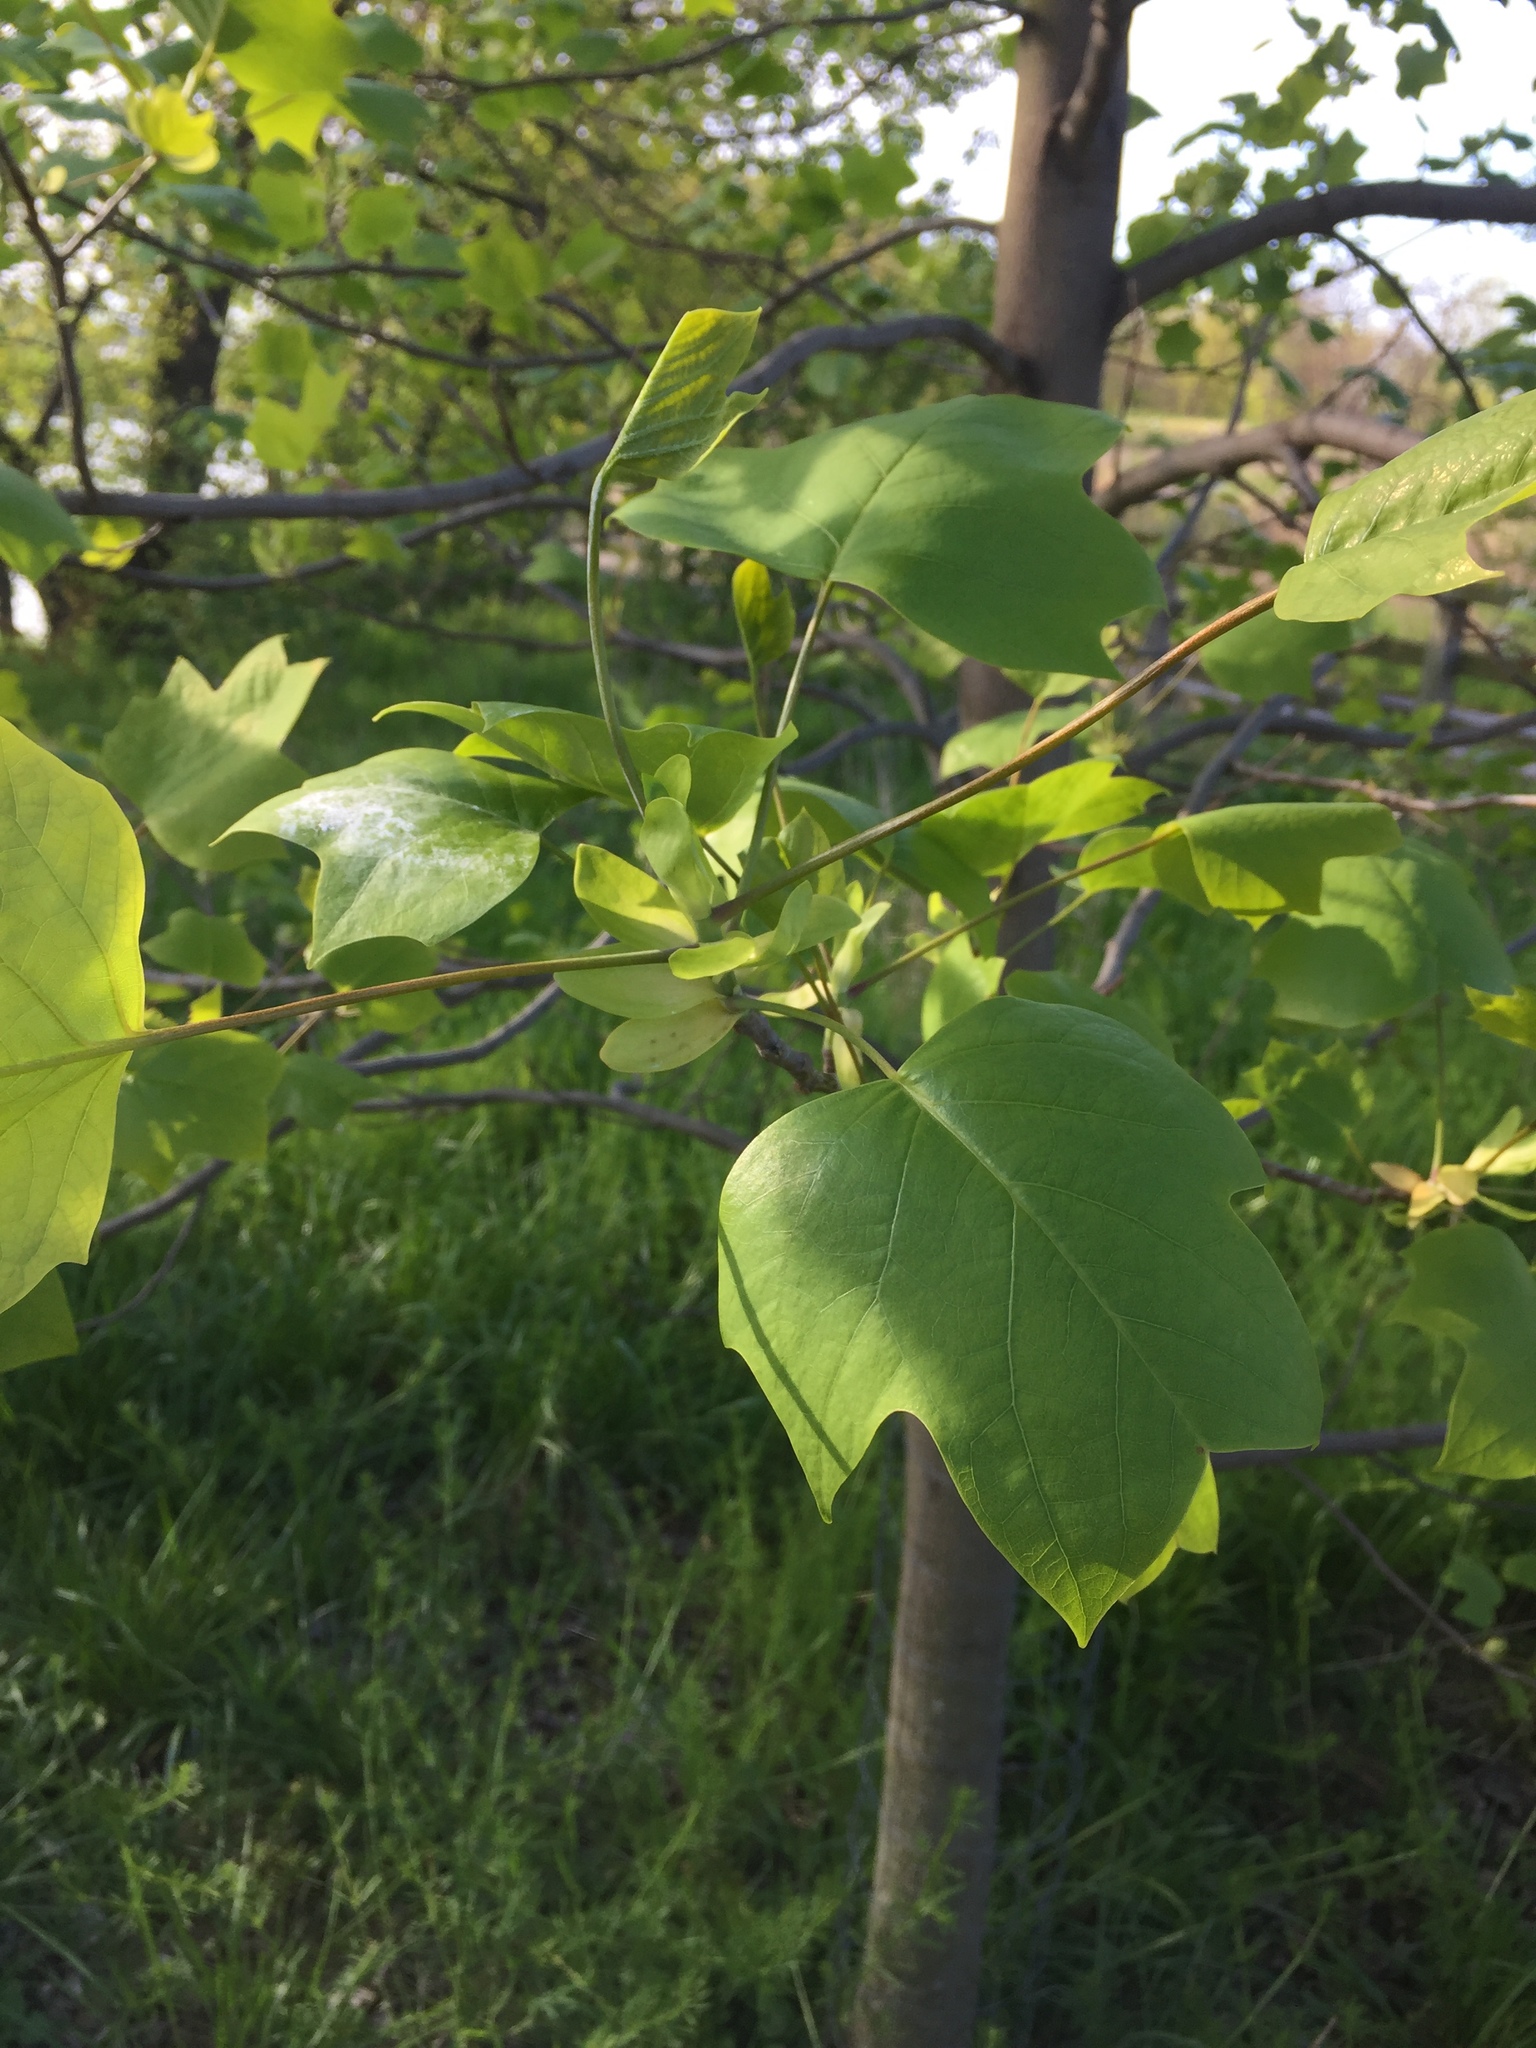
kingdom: Plantae
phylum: Tracheophyta
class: Magnoliopsida
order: Magnoliales
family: Magnoliaceae
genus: Liriodendron
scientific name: Liriodendron tulipifera
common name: Tulip tree
